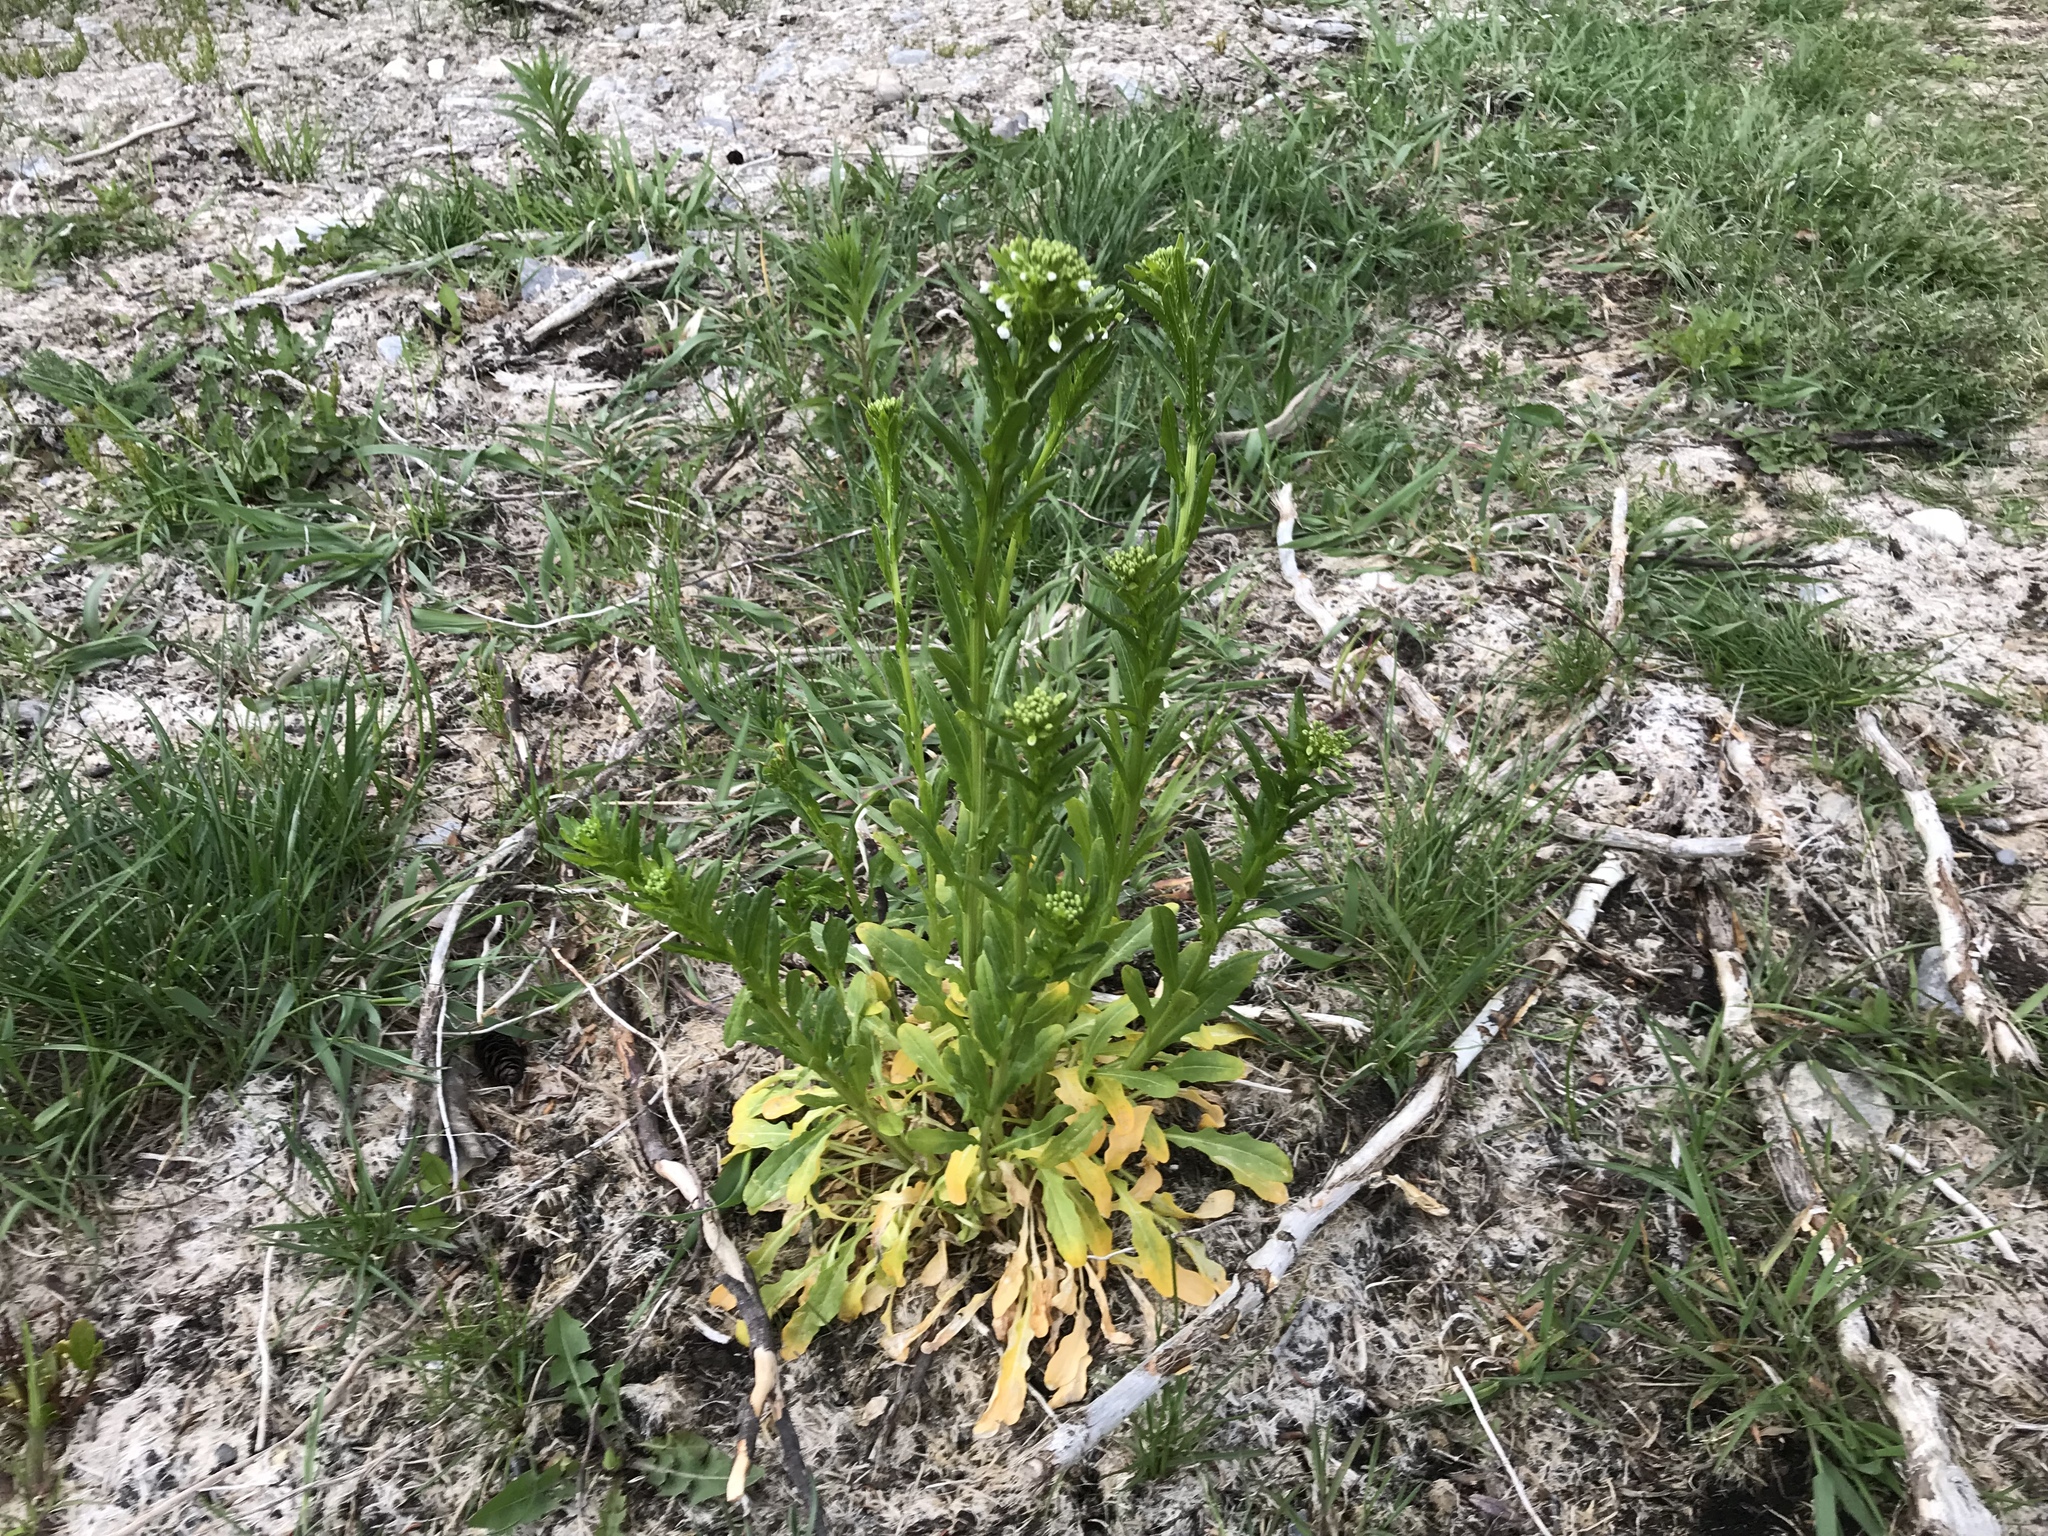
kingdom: Plantae
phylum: Tracheophyta
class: Magnoliopsida
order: Brassicales
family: Brassicaceae
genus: Thlaspi
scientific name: Thlaspi arvense
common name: Field pennycress
